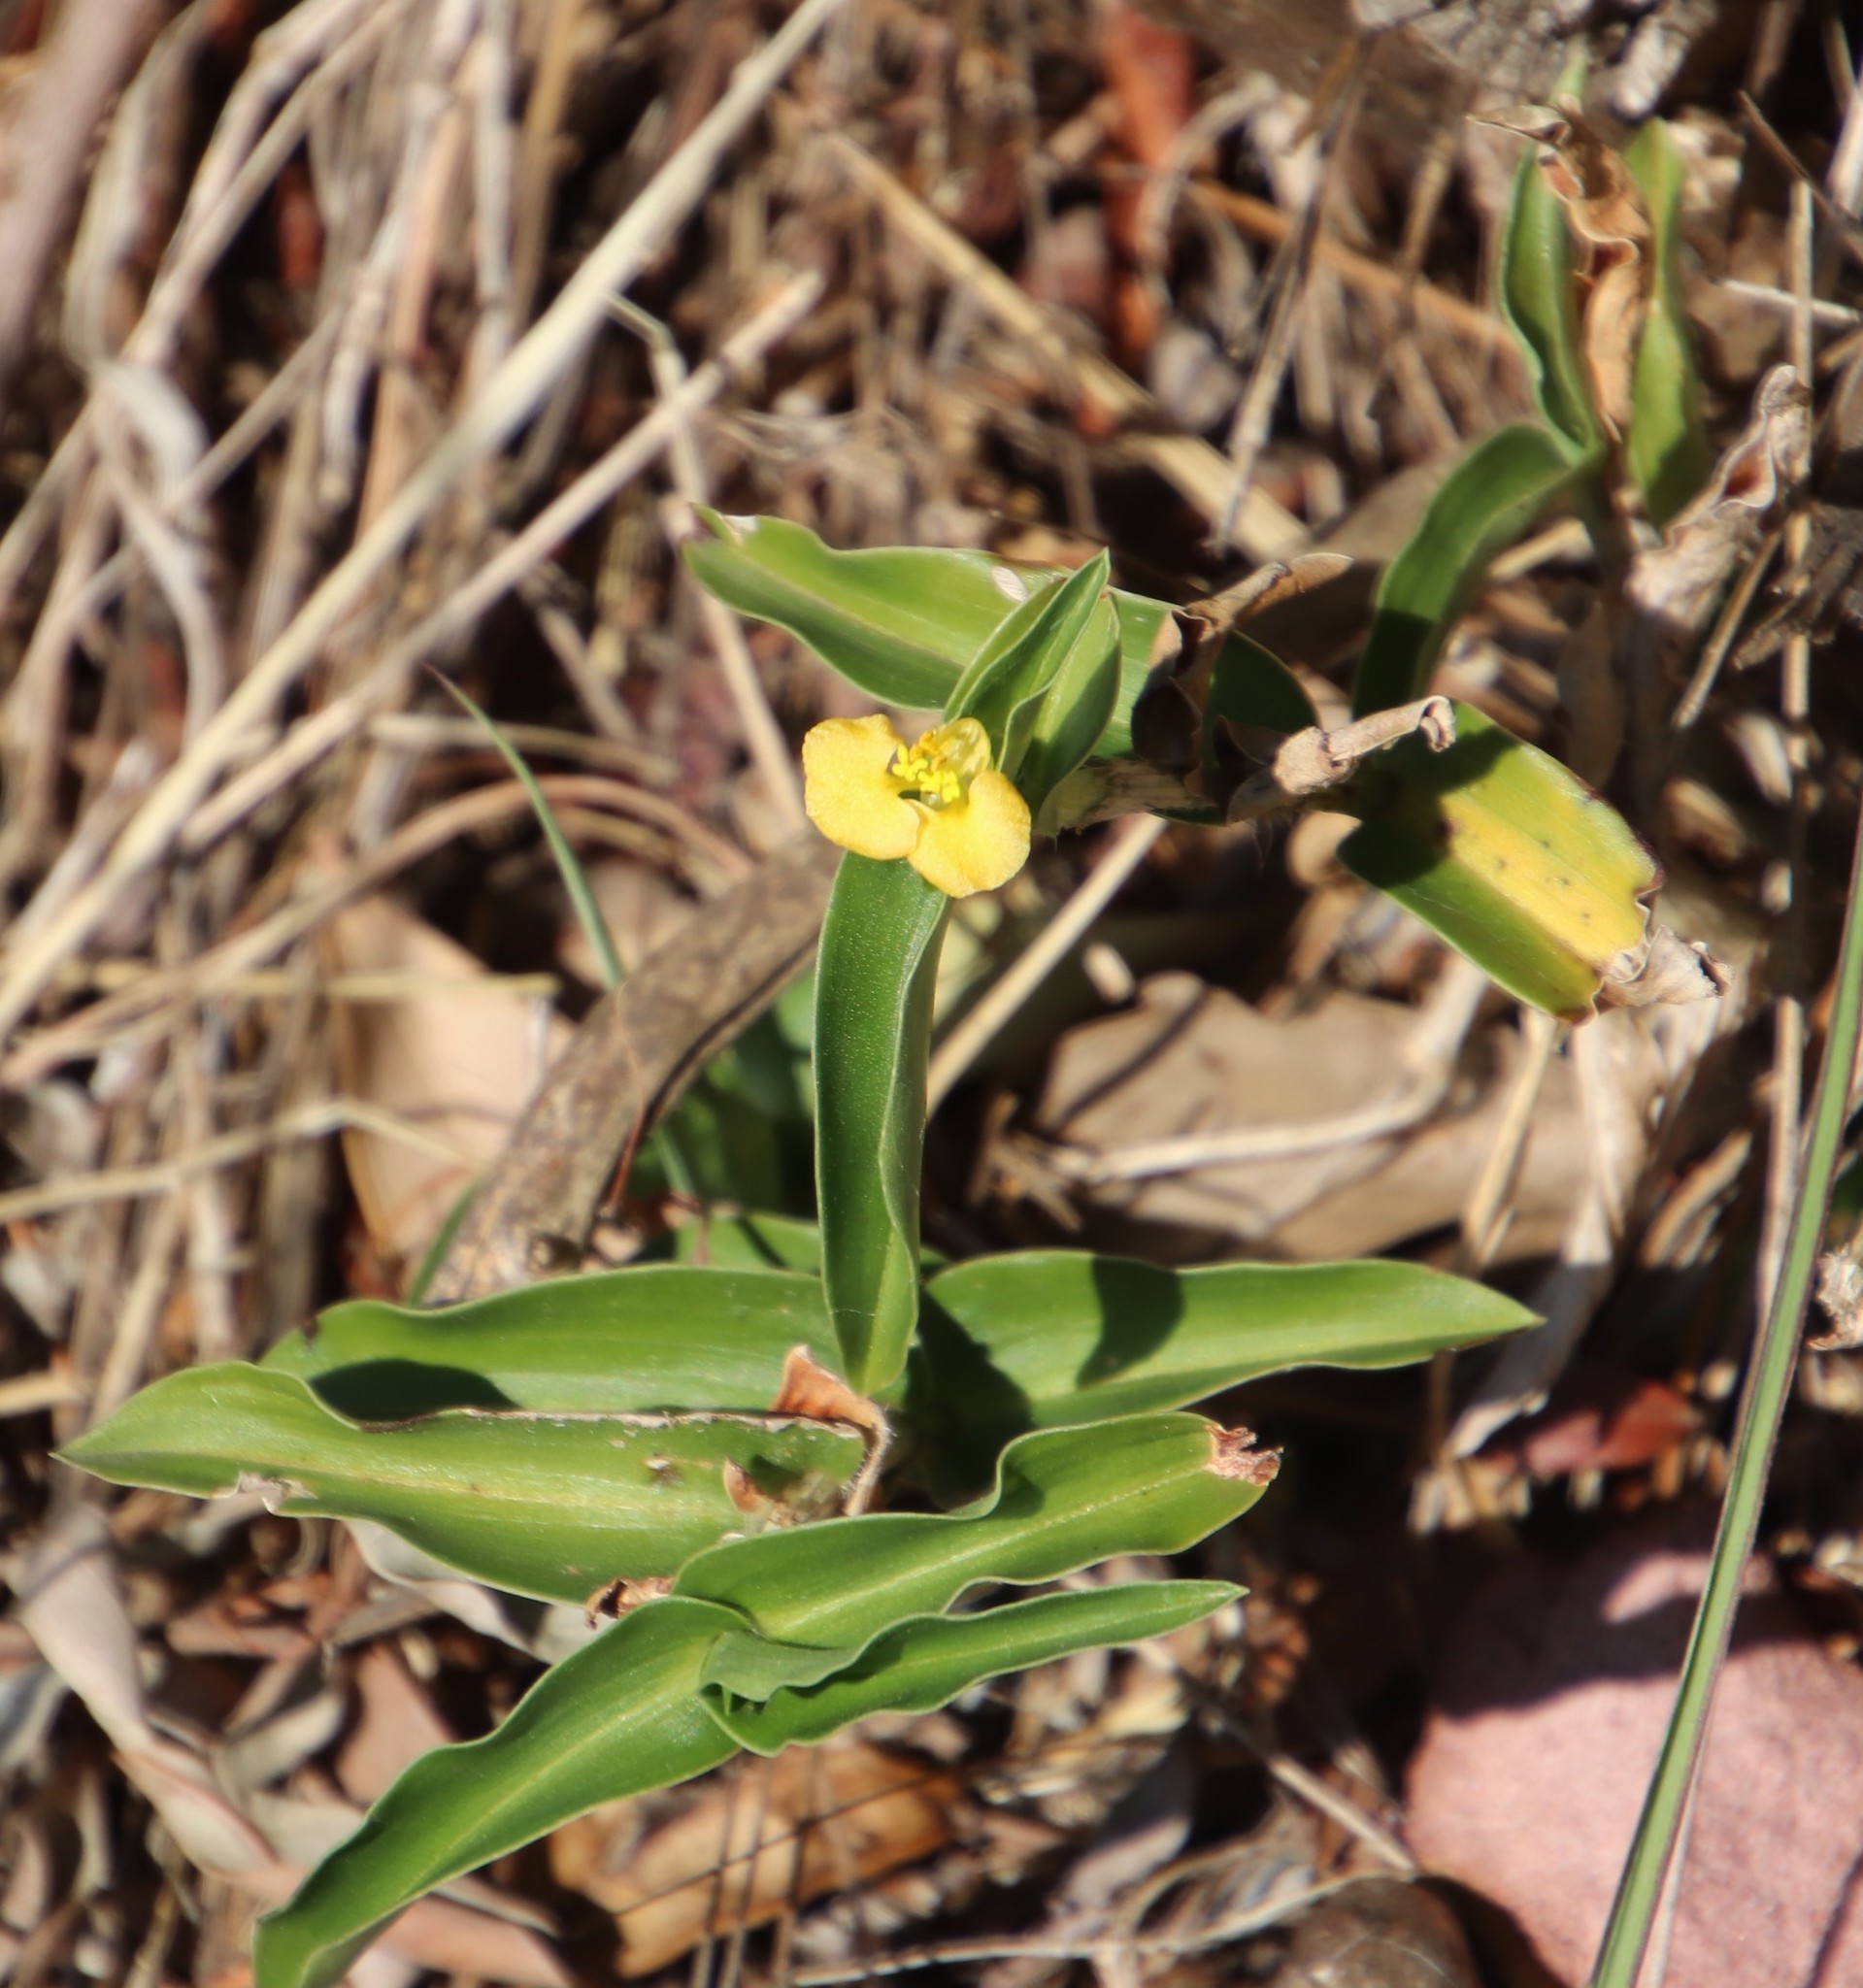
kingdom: Plantae
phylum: Tracheophyta
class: Liliopsida
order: Commelinales
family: Commelinaceae
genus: Commelina
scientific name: Commelina africana
